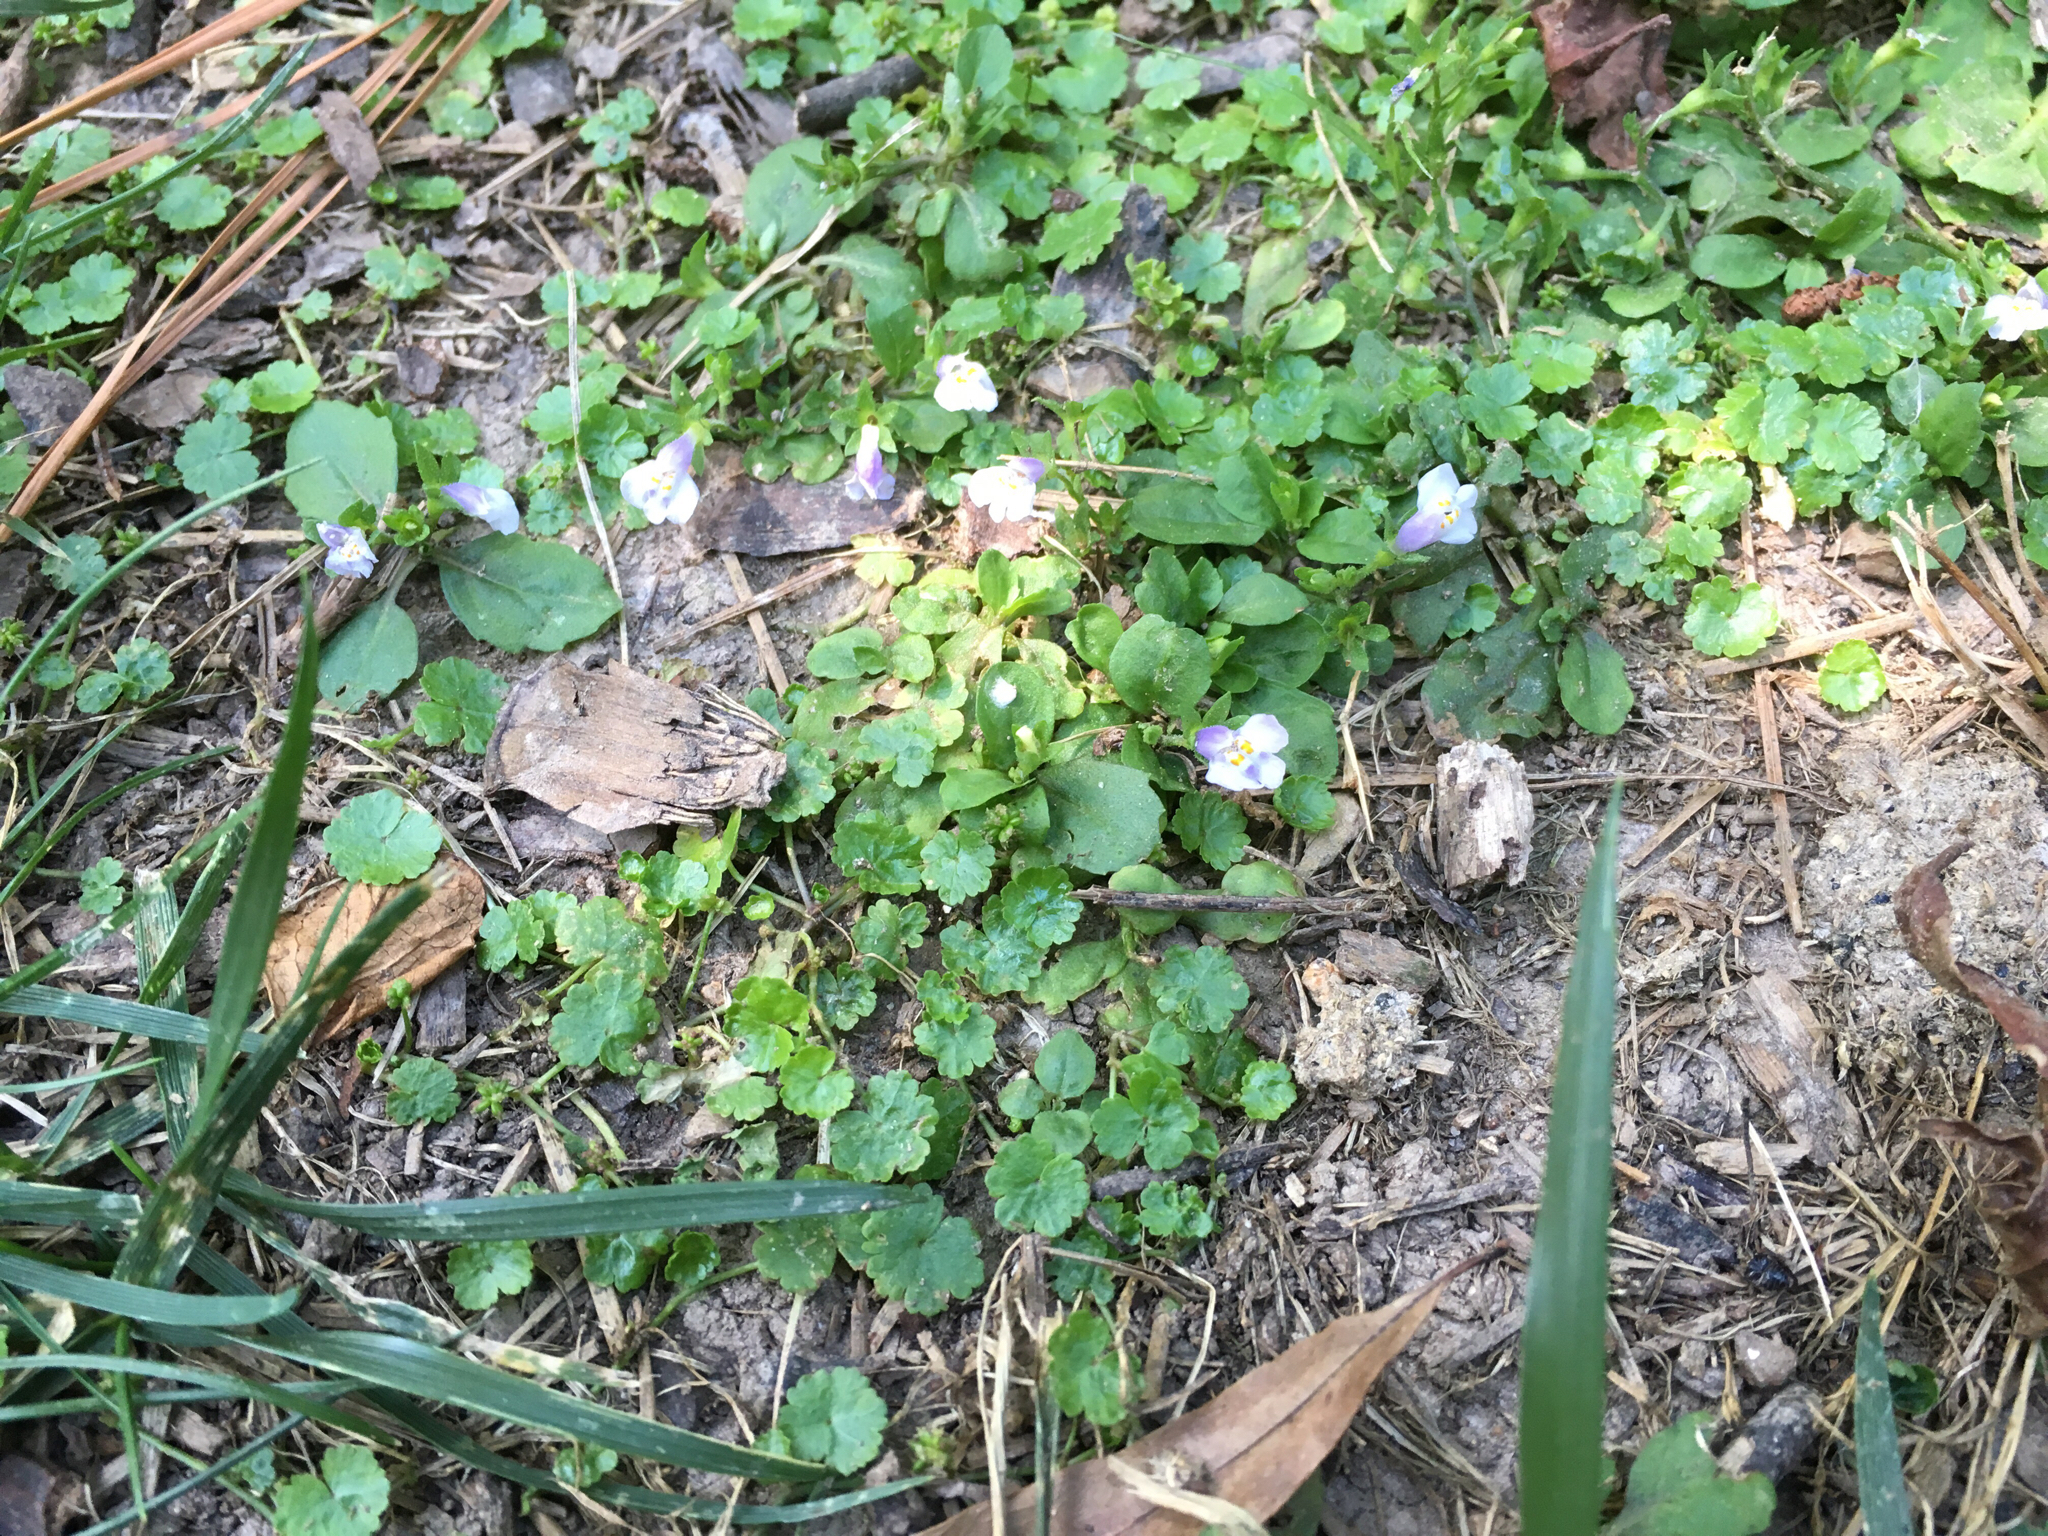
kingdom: Plantae
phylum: Tracheophyta
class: Magnoliopsida
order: Lamiales
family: Mazaceae
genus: Mazus
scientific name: Mazus pumilus
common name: Japanese mazus
